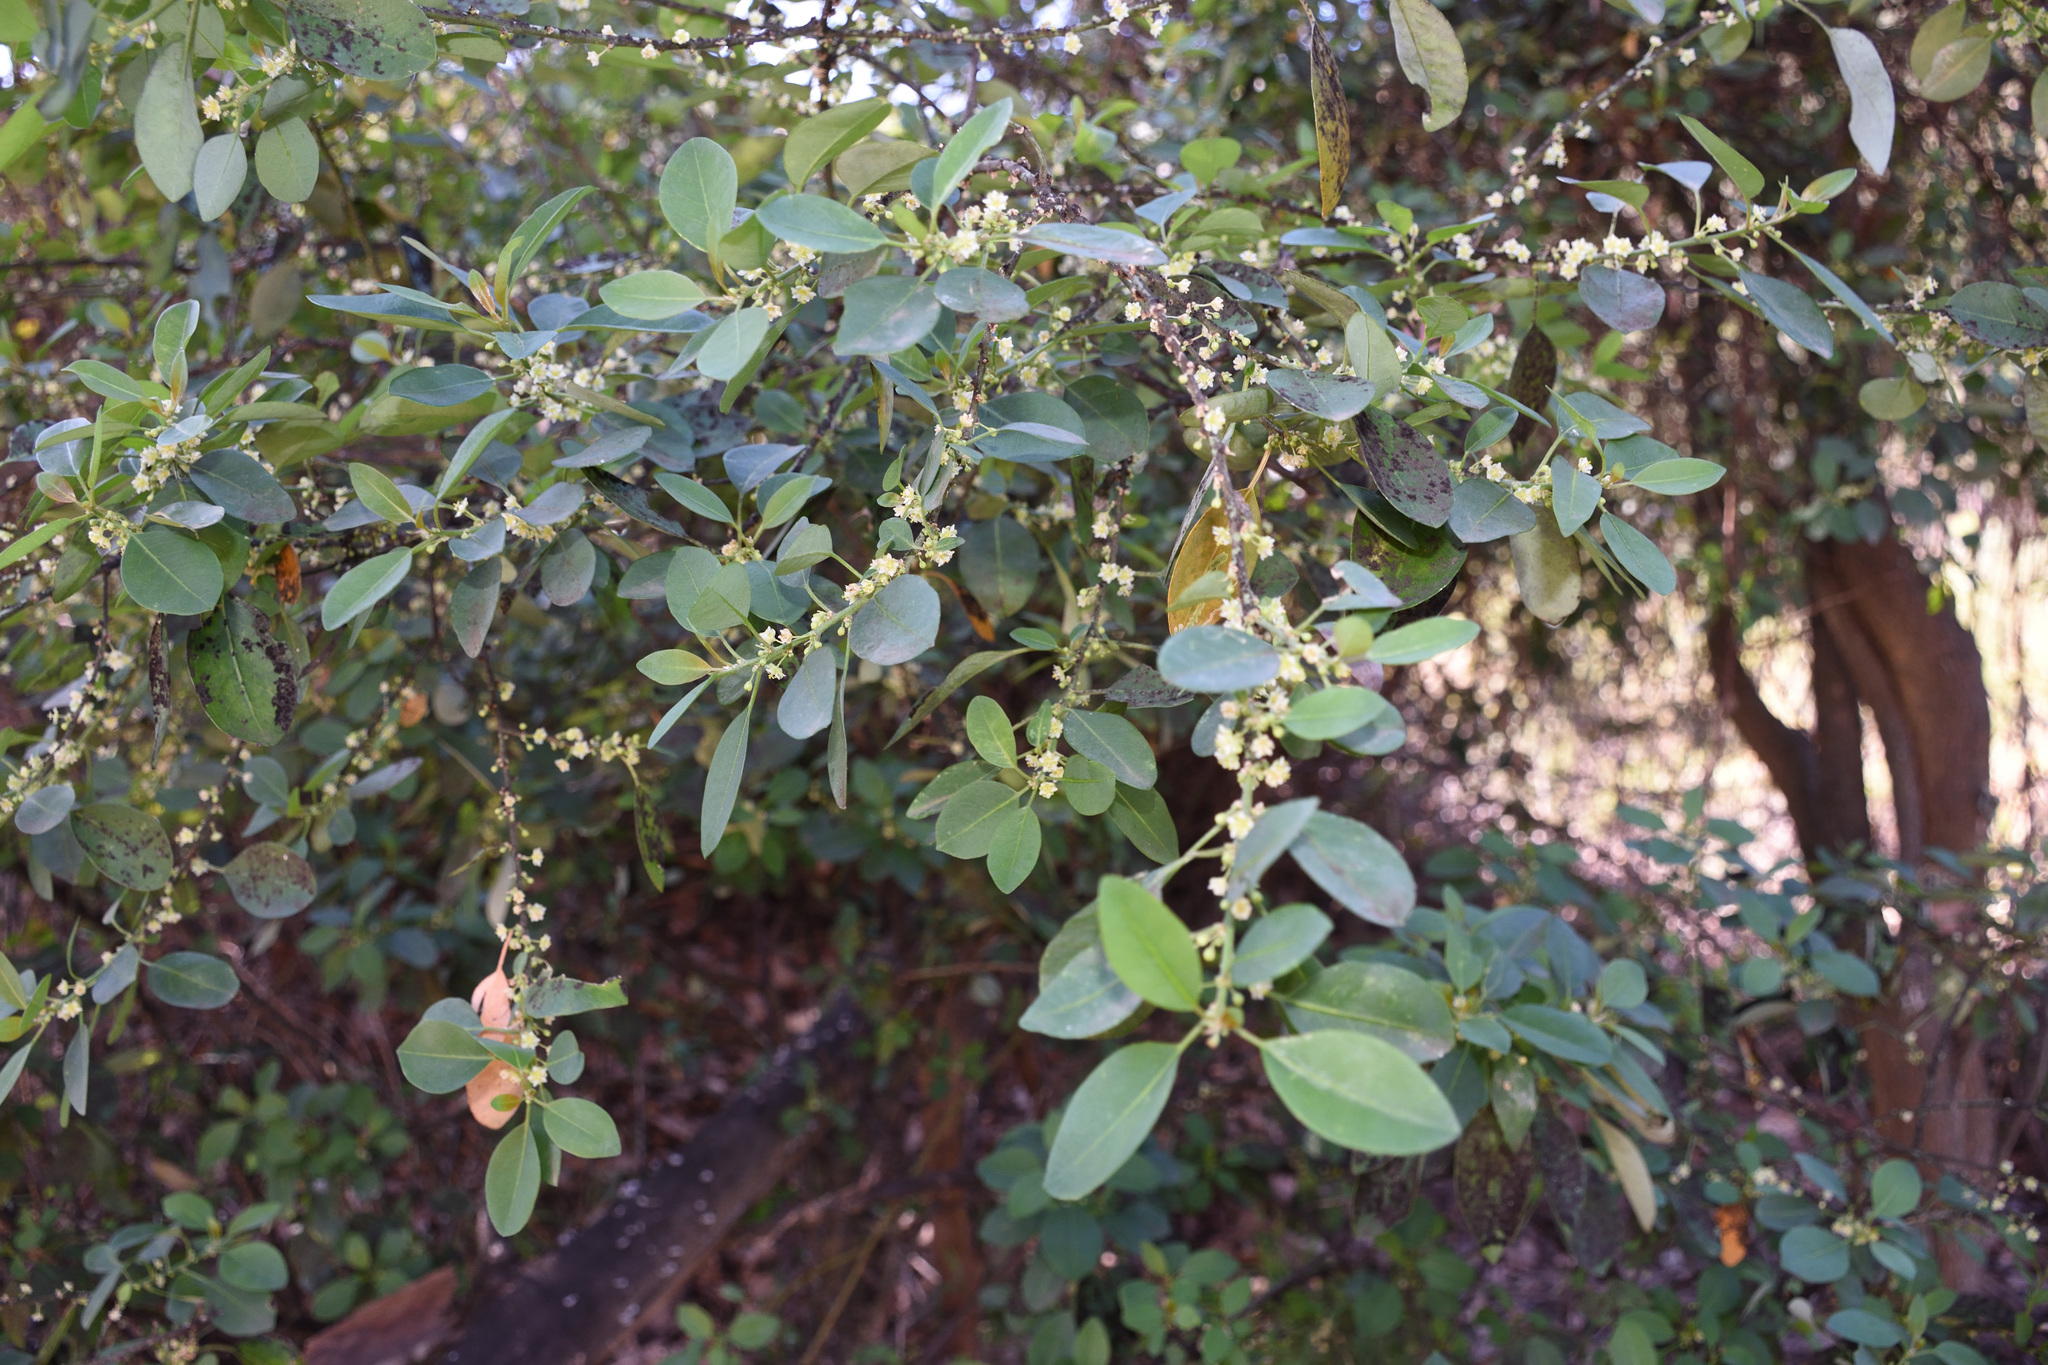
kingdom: Plantae
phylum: Tracheophyta
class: Magnoliopsida
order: Malpighiales
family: Peraceae
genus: Clutia
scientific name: Clutia pulchella
